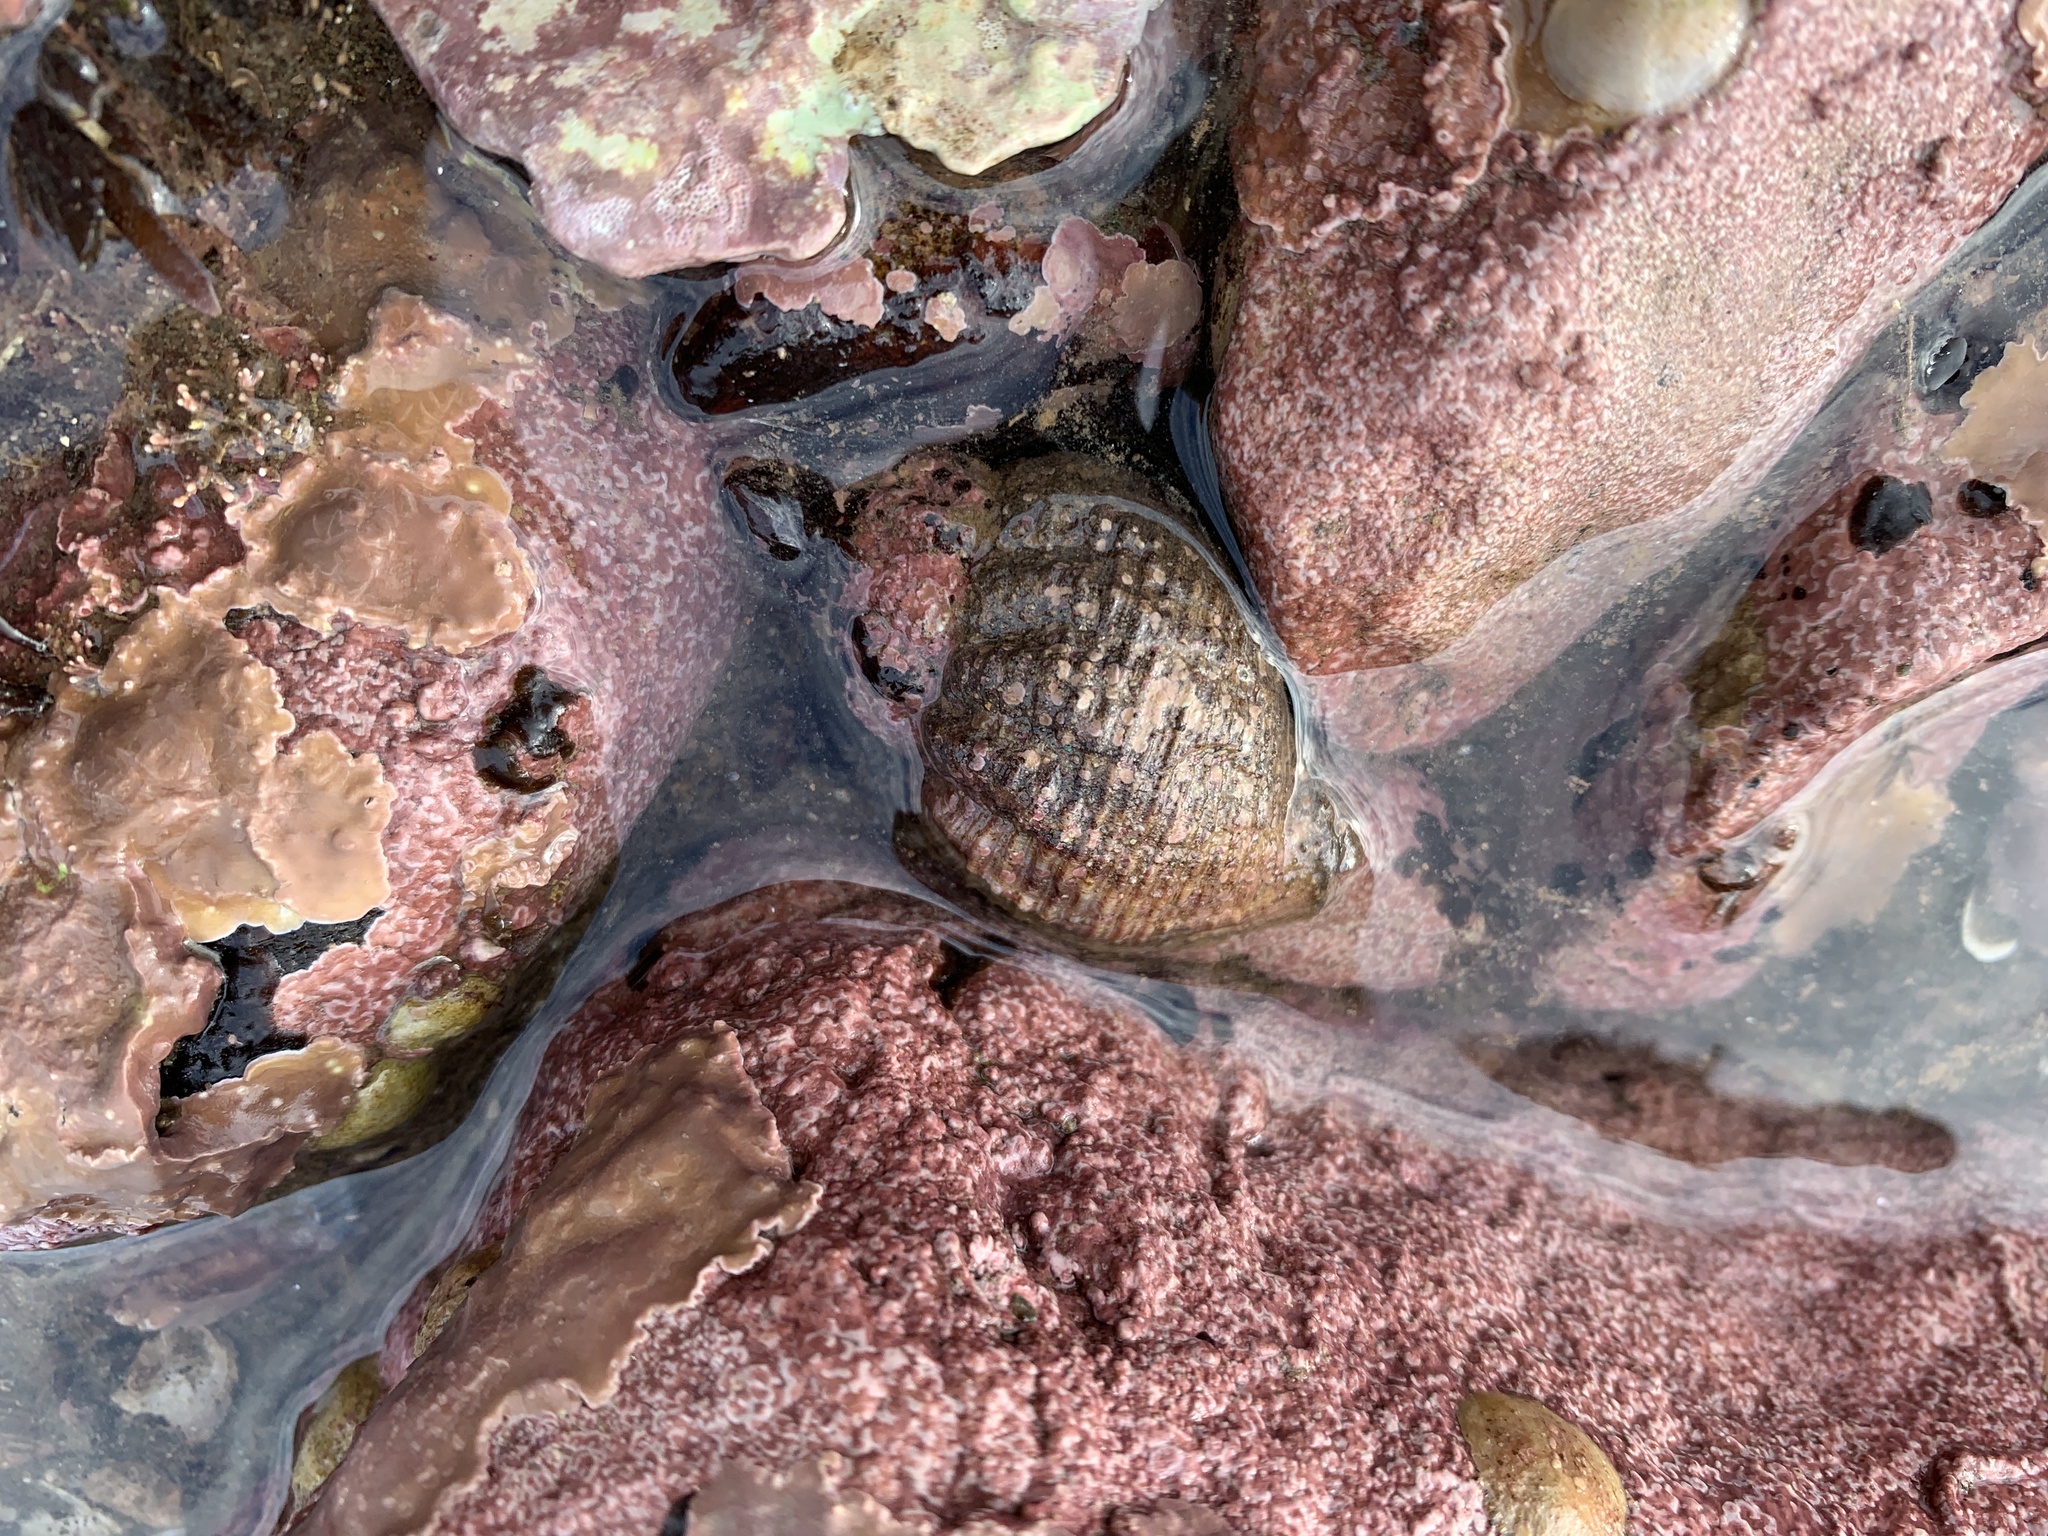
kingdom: Animalia
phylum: Mollusca
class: Gastropoda
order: Neogastropoda
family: Buccinidae
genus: Buccinum
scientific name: Buccinum undatum
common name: Common whelk
